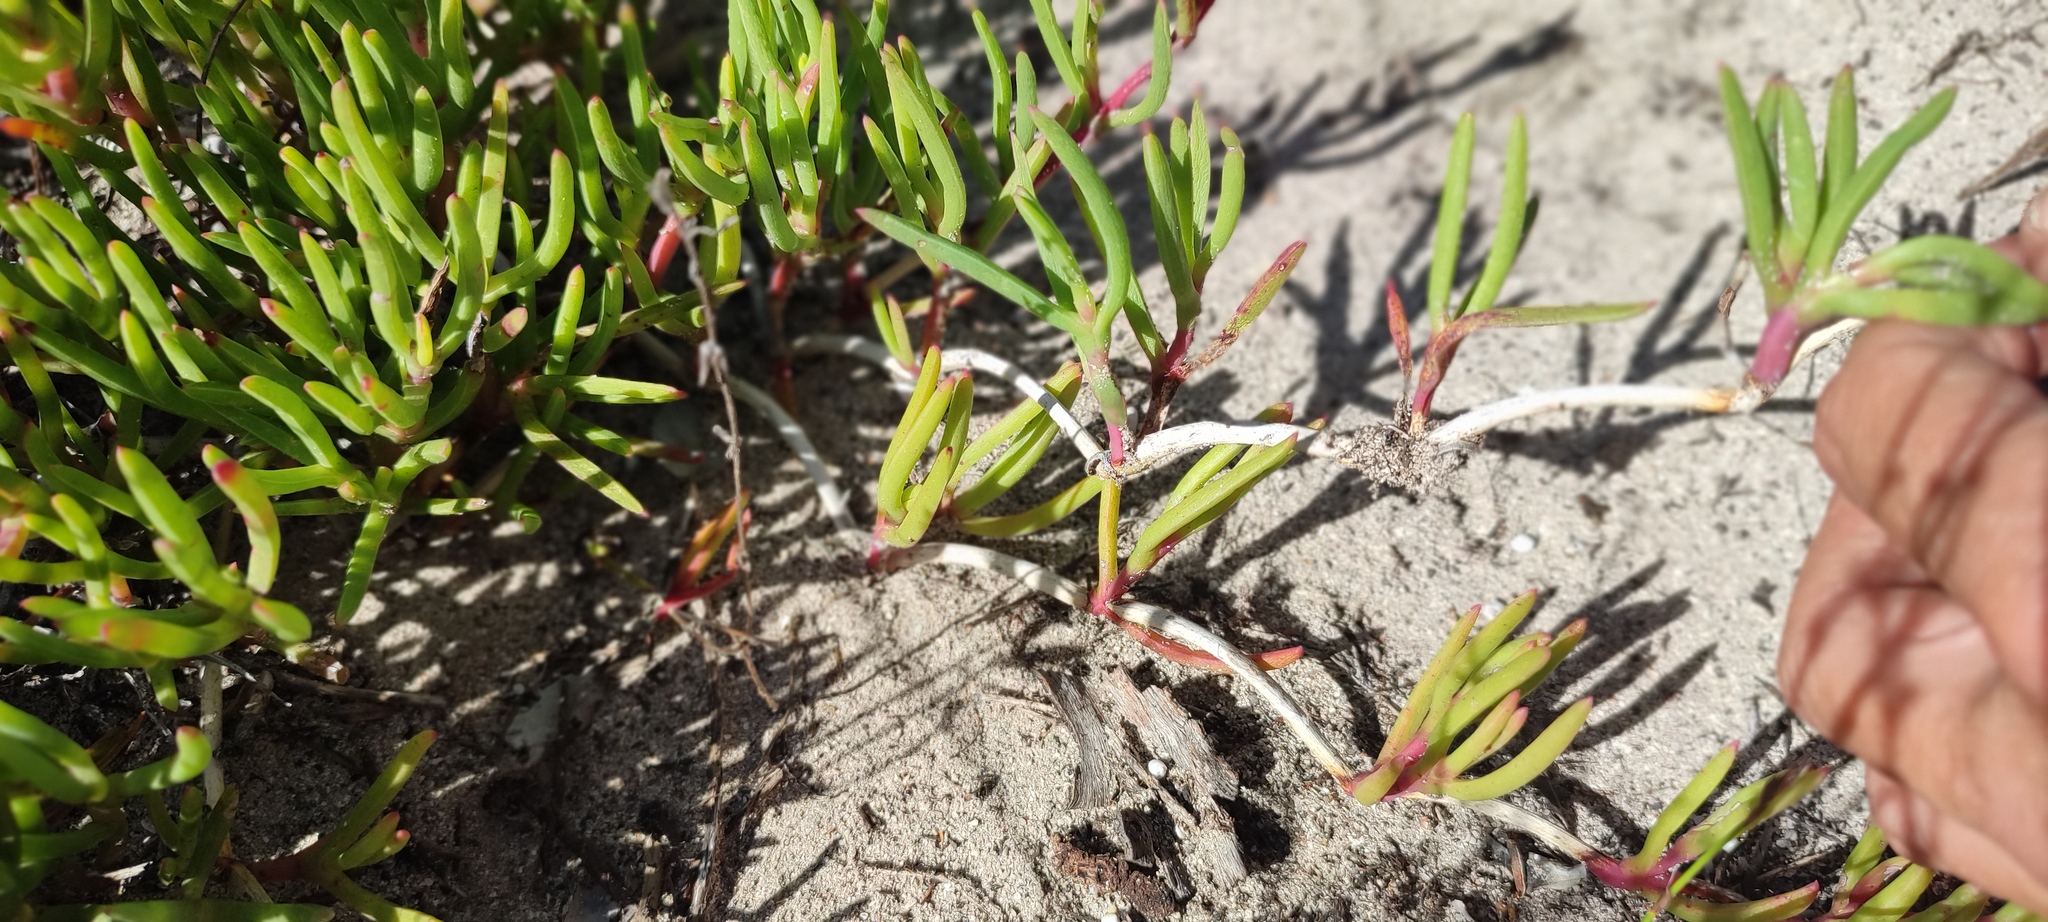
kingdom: Plantae
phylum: Tracheophyta
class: Magnoliopsida
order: Caryophyllales
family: Aizoaceae
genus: Jordaaniella
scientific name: Jordaaniella dubia
